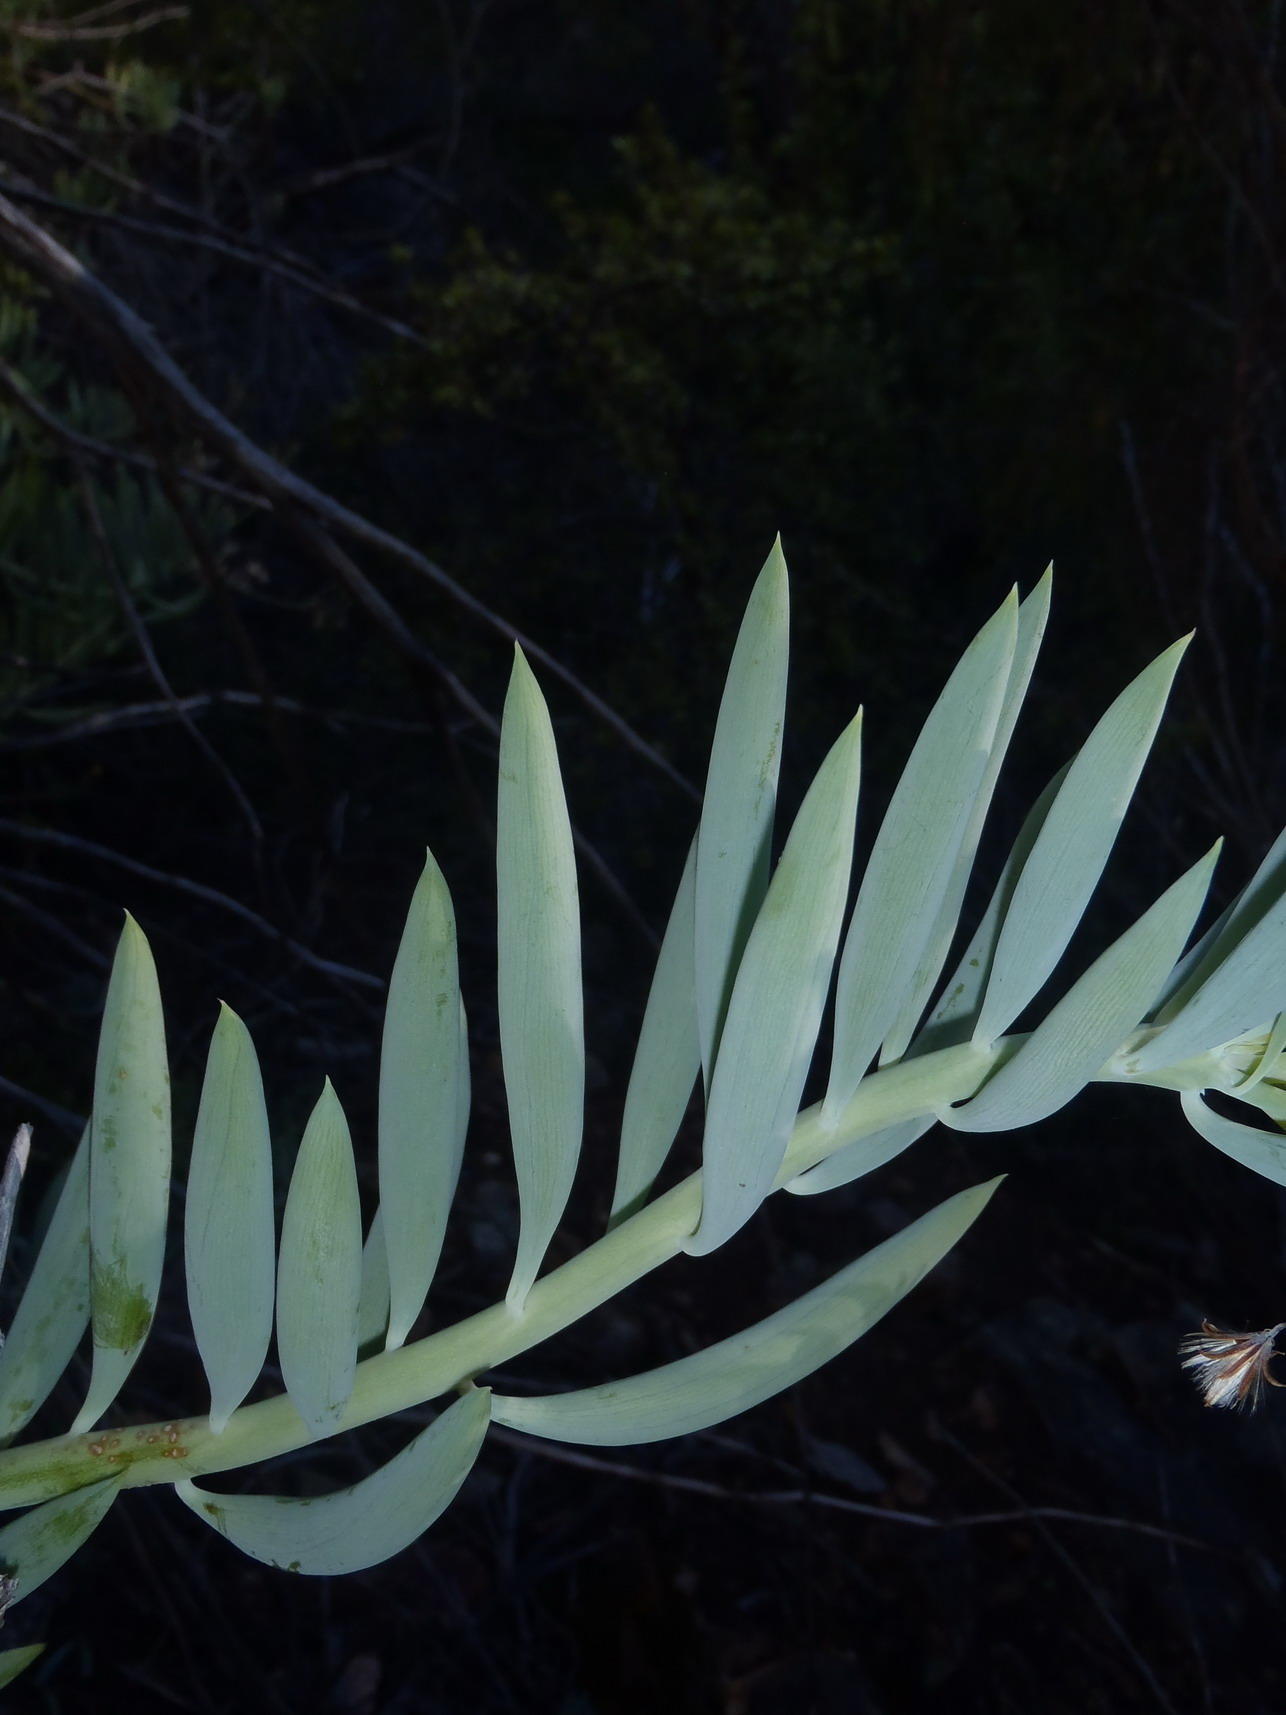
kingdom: Plantae
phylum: Tracheophyta
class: Magnoliopsida
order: Asterales
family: Asteraceae
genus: Curio
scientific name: Curio ficoides
